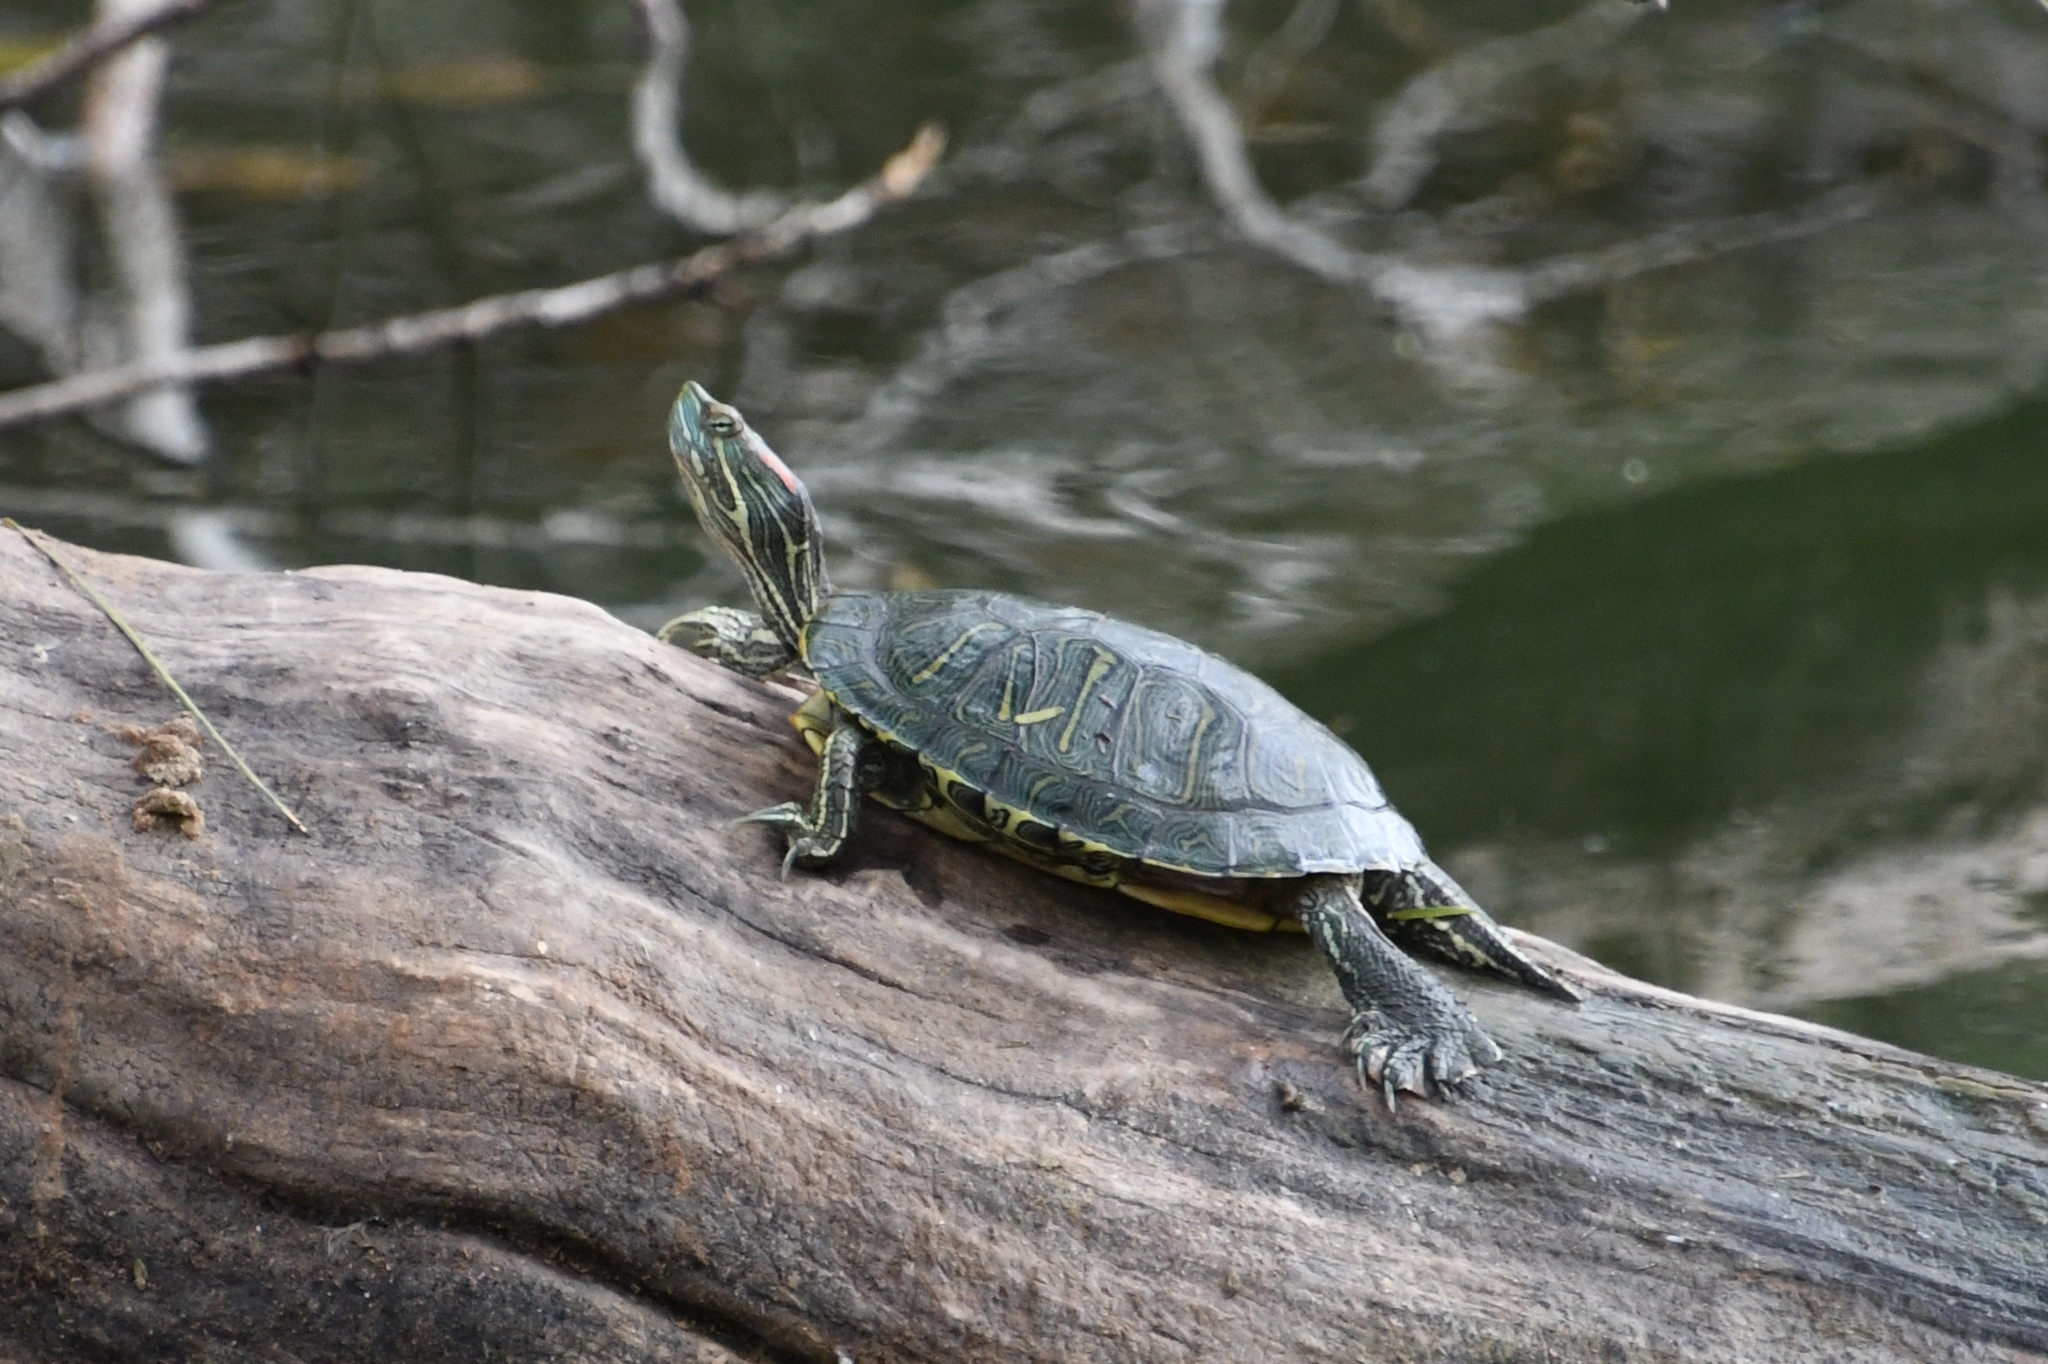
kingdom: Animalia
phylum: Chordata
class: Testudines
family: Emydidae
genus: Trachemys
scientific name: Trachemys scripta
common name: Slider
